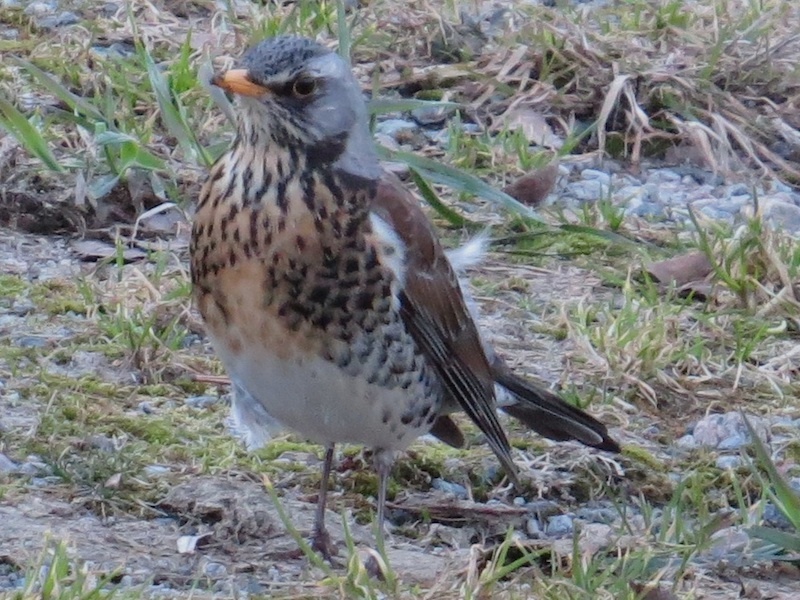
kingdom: Animalia
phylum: Chordata
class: Aves
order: Passeriformes
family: Turdidae
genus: Turdus
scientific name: Turdus pilaris
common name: Fieldfare
